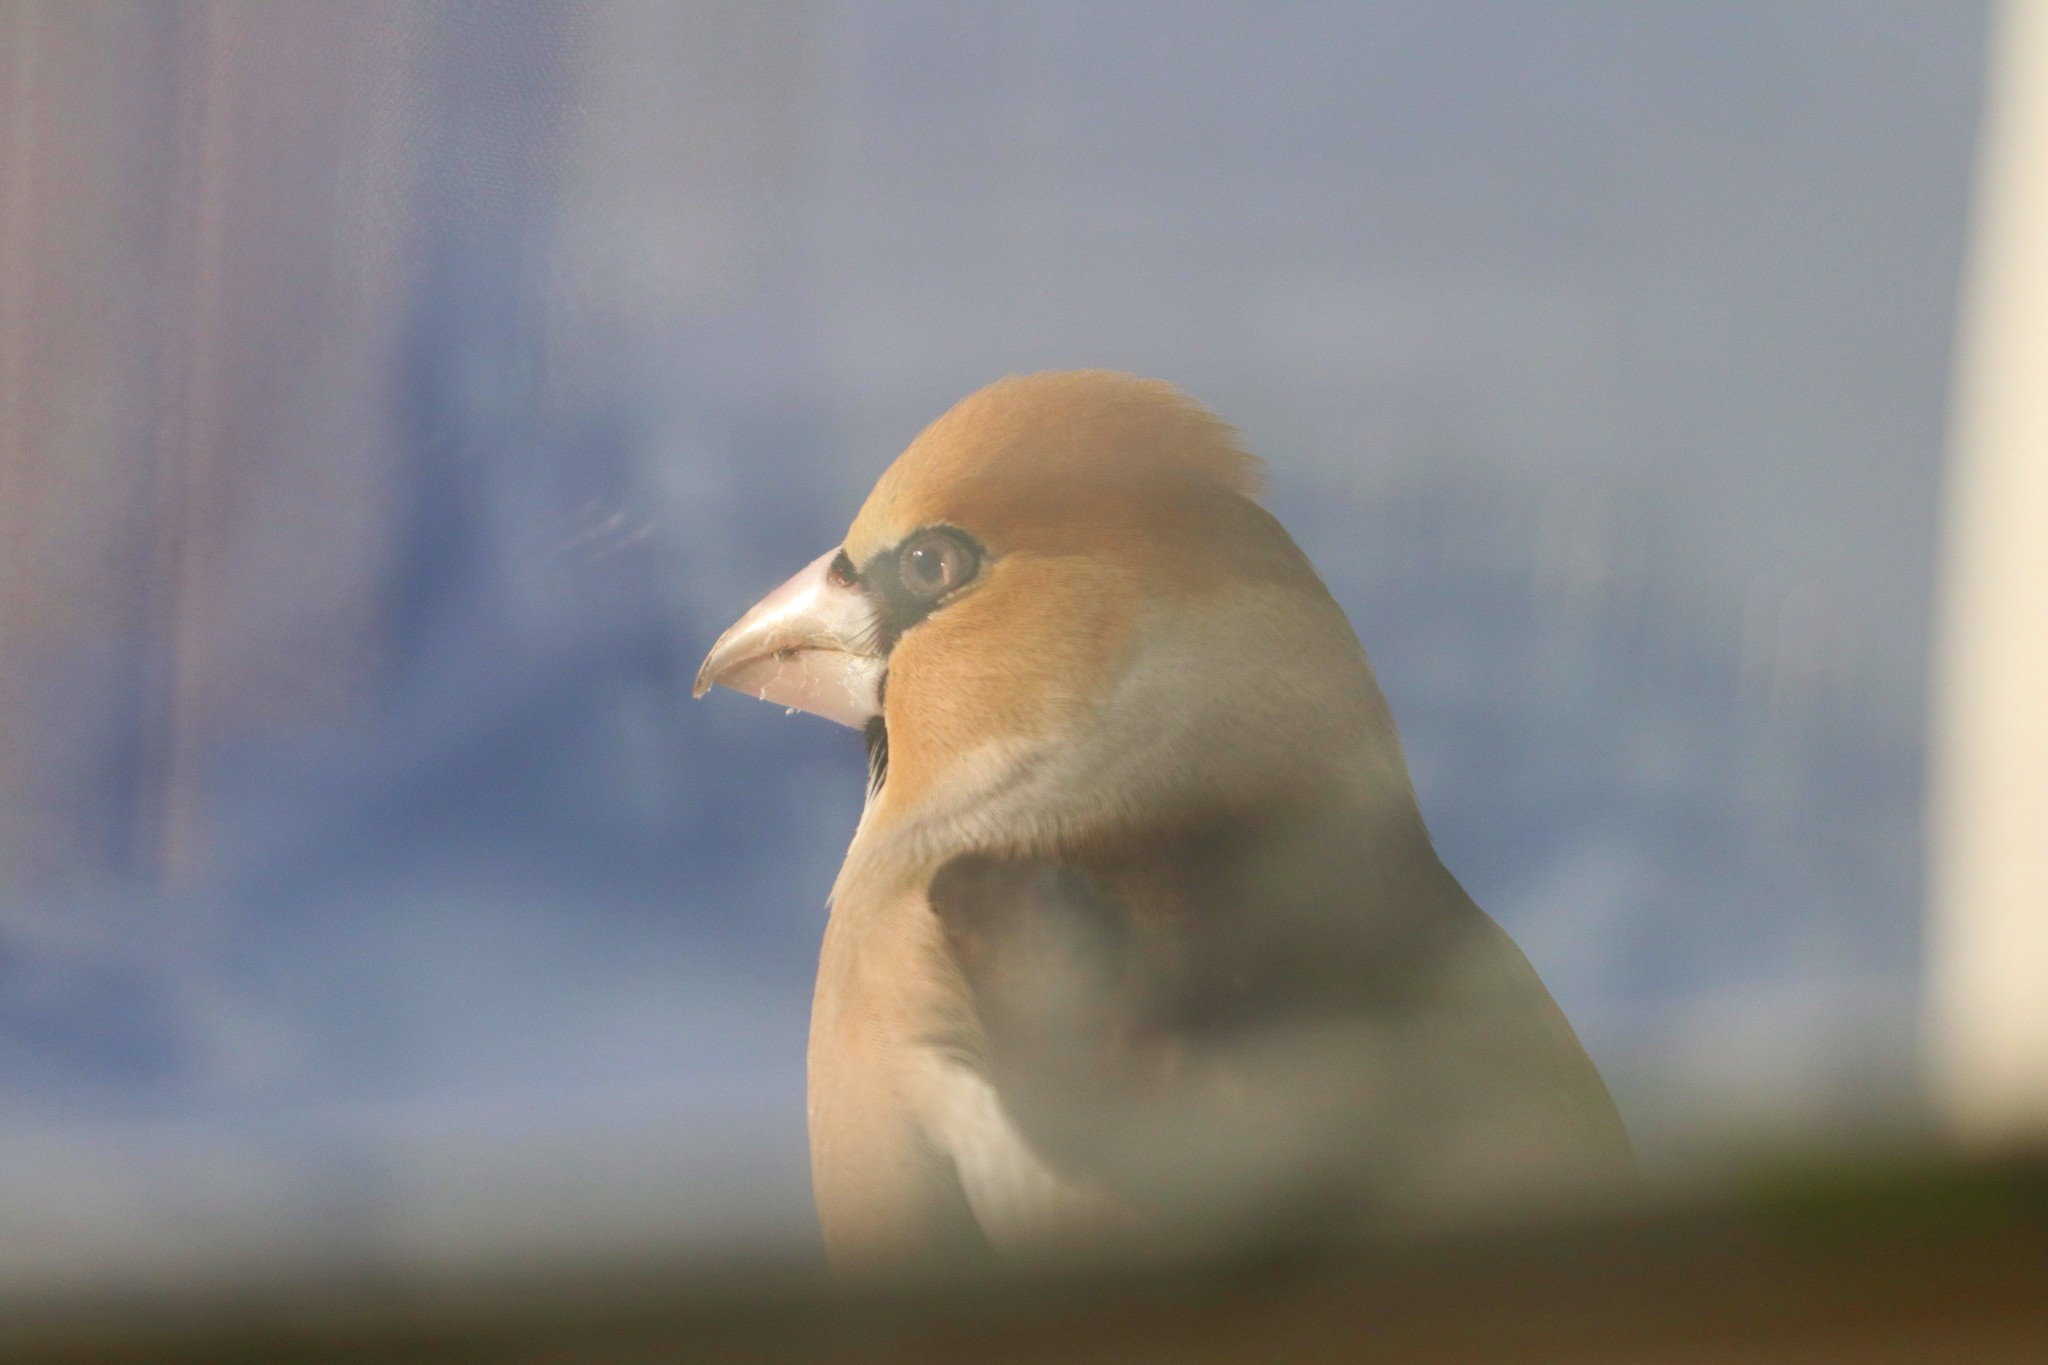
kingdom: Animalia
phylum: Chordata
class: Aves
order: Passeriformes
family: Fringillidae
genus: Coccothraustes
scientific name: Coccothraustes coccothraustes
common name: Hawfinch
